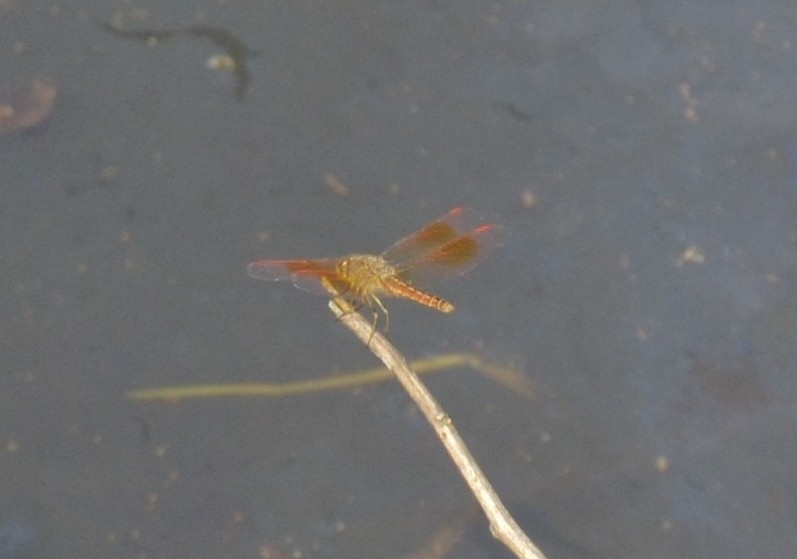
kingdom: Animalia
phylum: Arthropoda
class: Insecta
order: Odonata
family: Libellulidae
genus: Brachythemis
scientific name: Brachythemis contaminata
